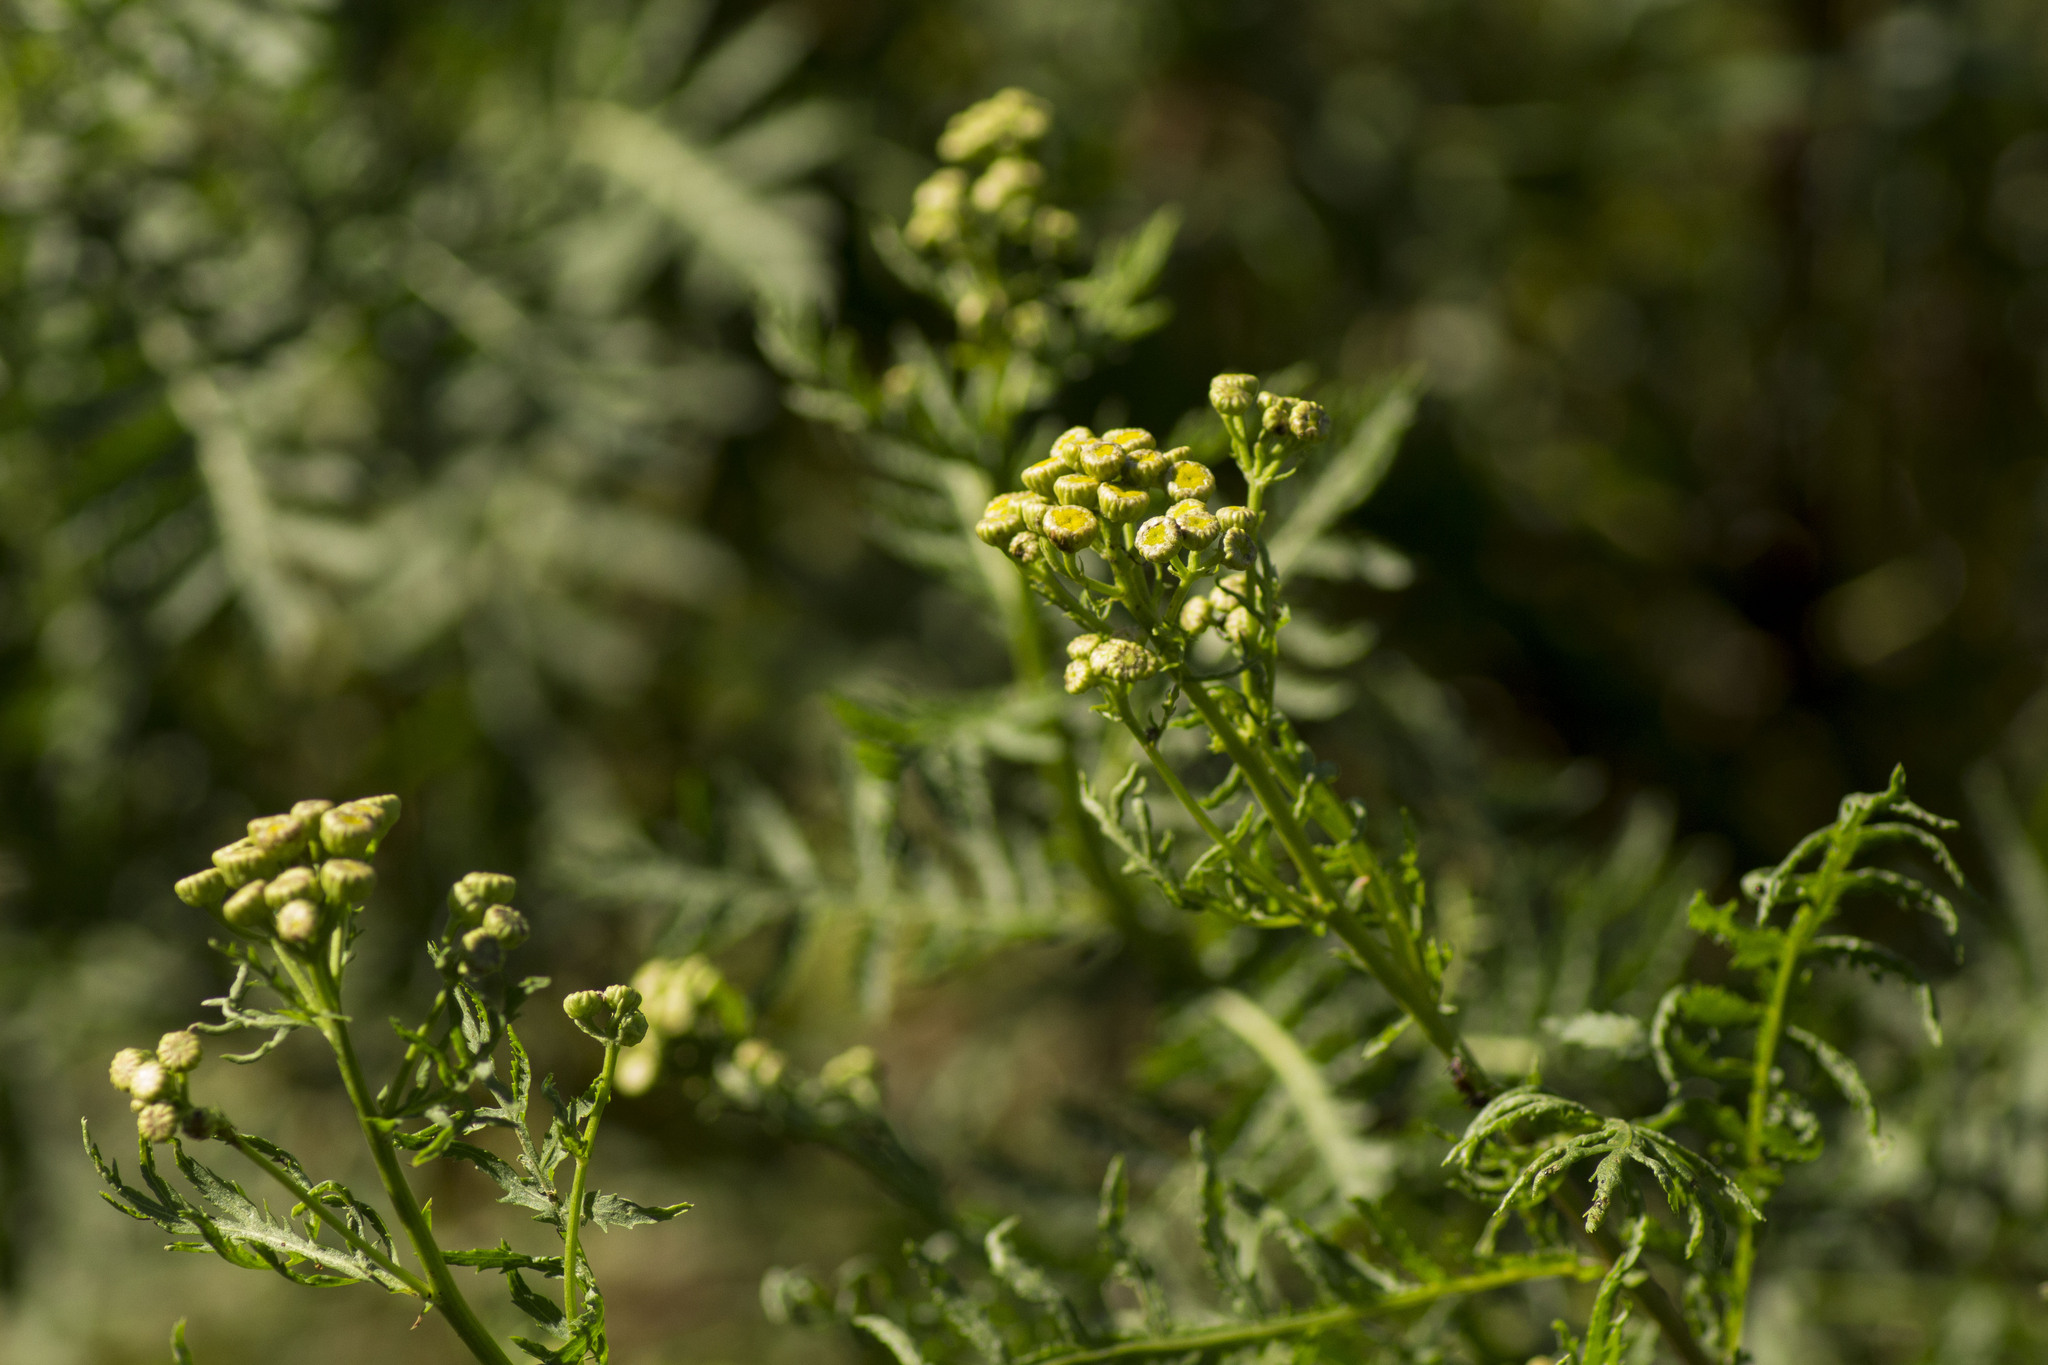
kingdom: Plantae
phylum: Tracheophyta
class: Magnoliopsida
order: Asterales
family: Asteraceae
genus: Tanacetum
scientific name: Tanacetum vulgare
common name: Common tansy
